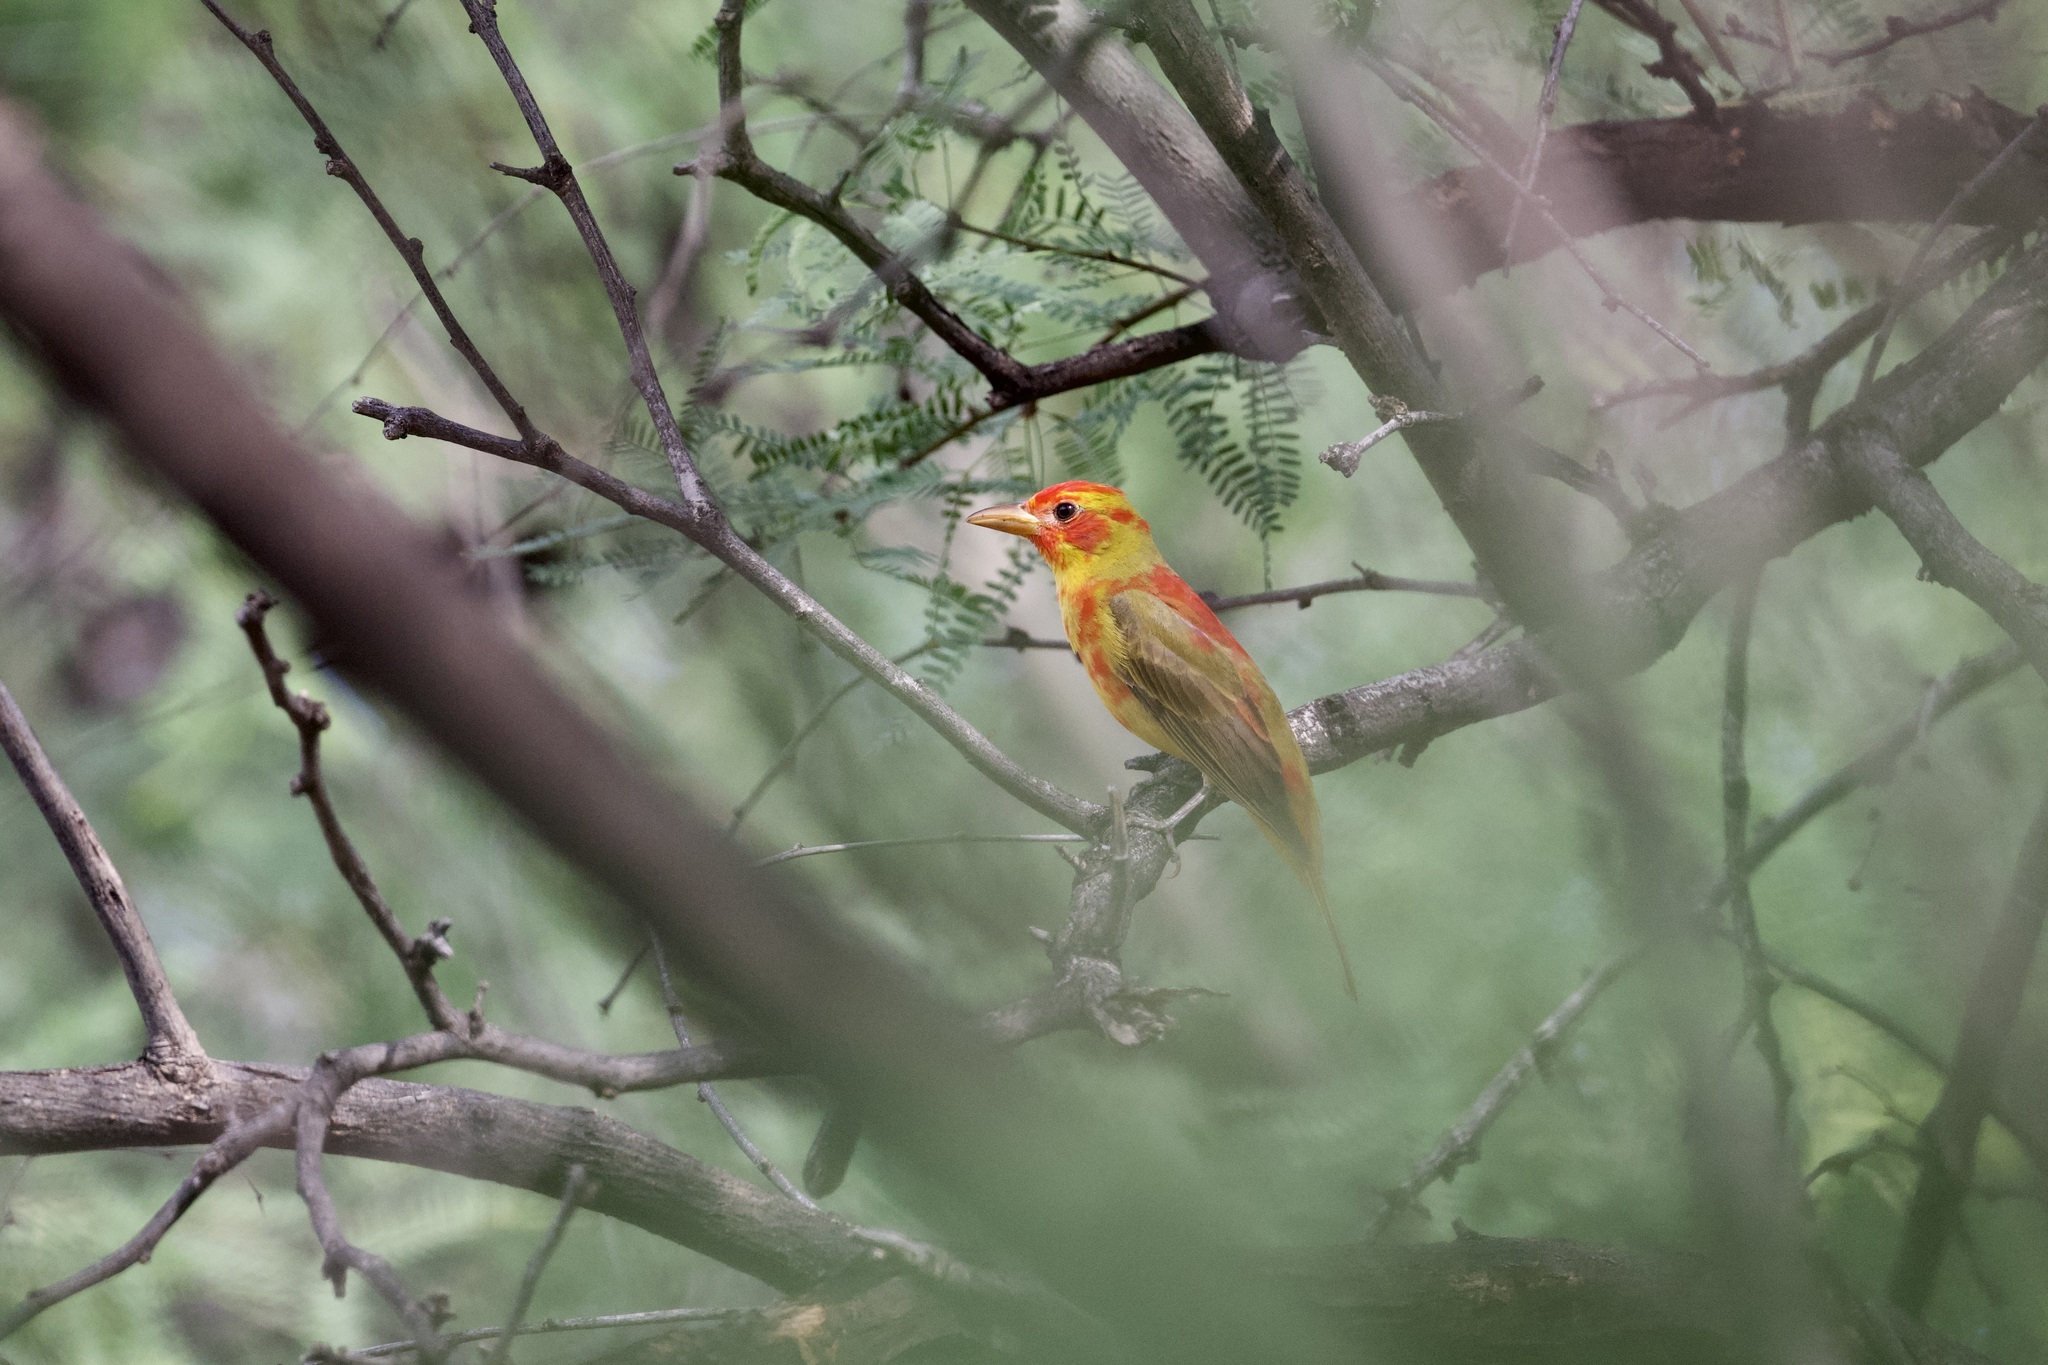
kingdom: Animalia
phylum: Chordata
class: Aves
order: Passeriformes
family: Cardinalidae
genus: Piranga
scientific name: Piranga rubra
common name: Summer tanager
